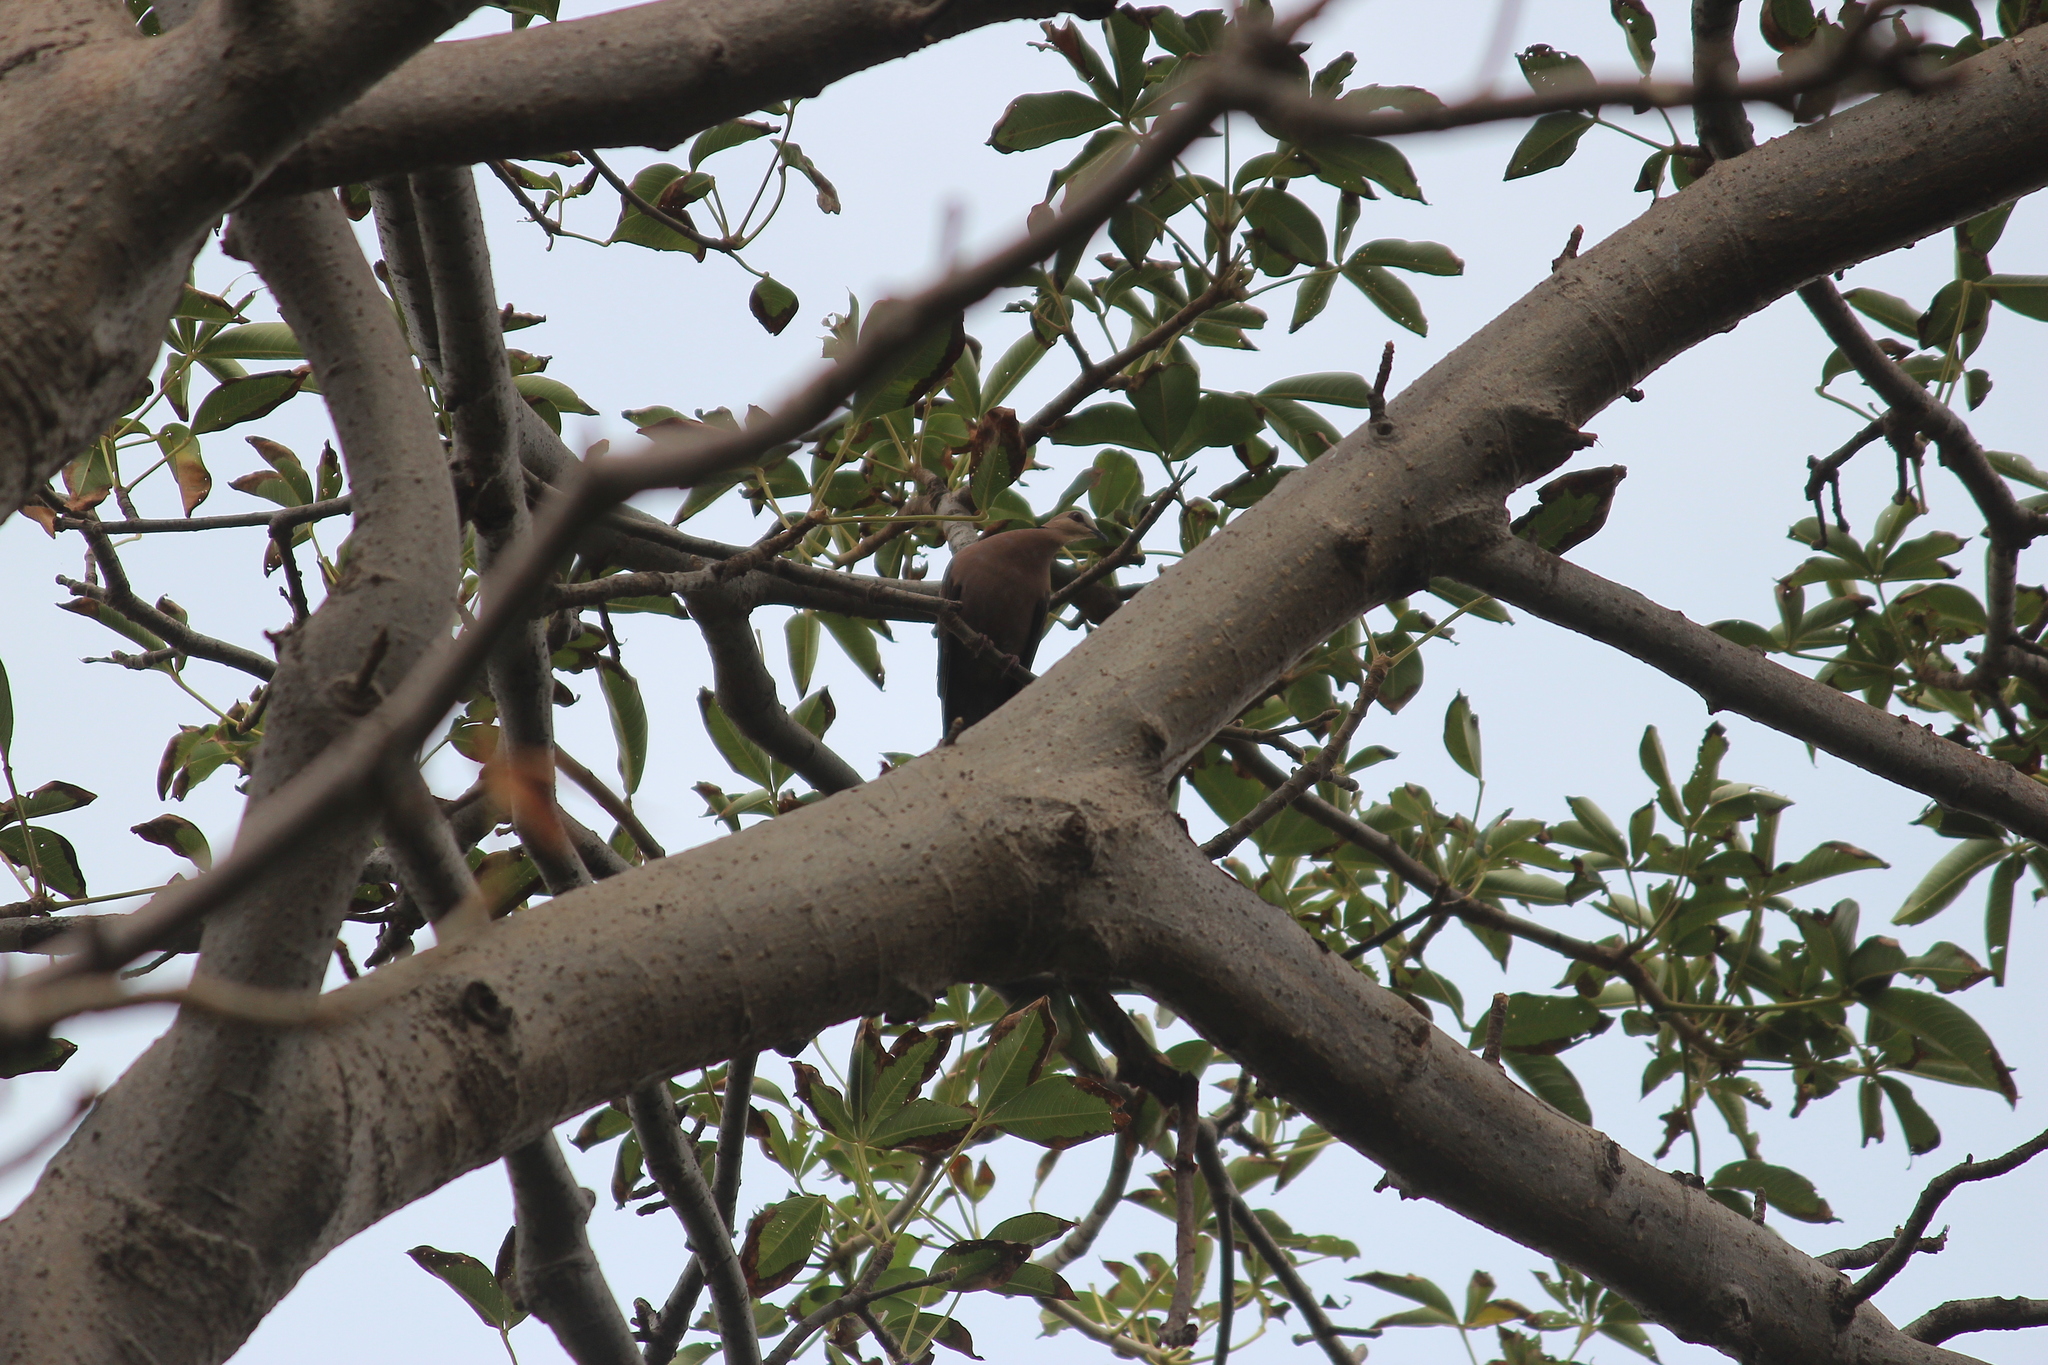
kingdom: Animalia
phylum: Chordata
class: Aves
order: Columbiformes
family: Columbidae
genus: Streptopelia
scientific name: Streptopelia semitorquata
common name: Red-eyed dove
